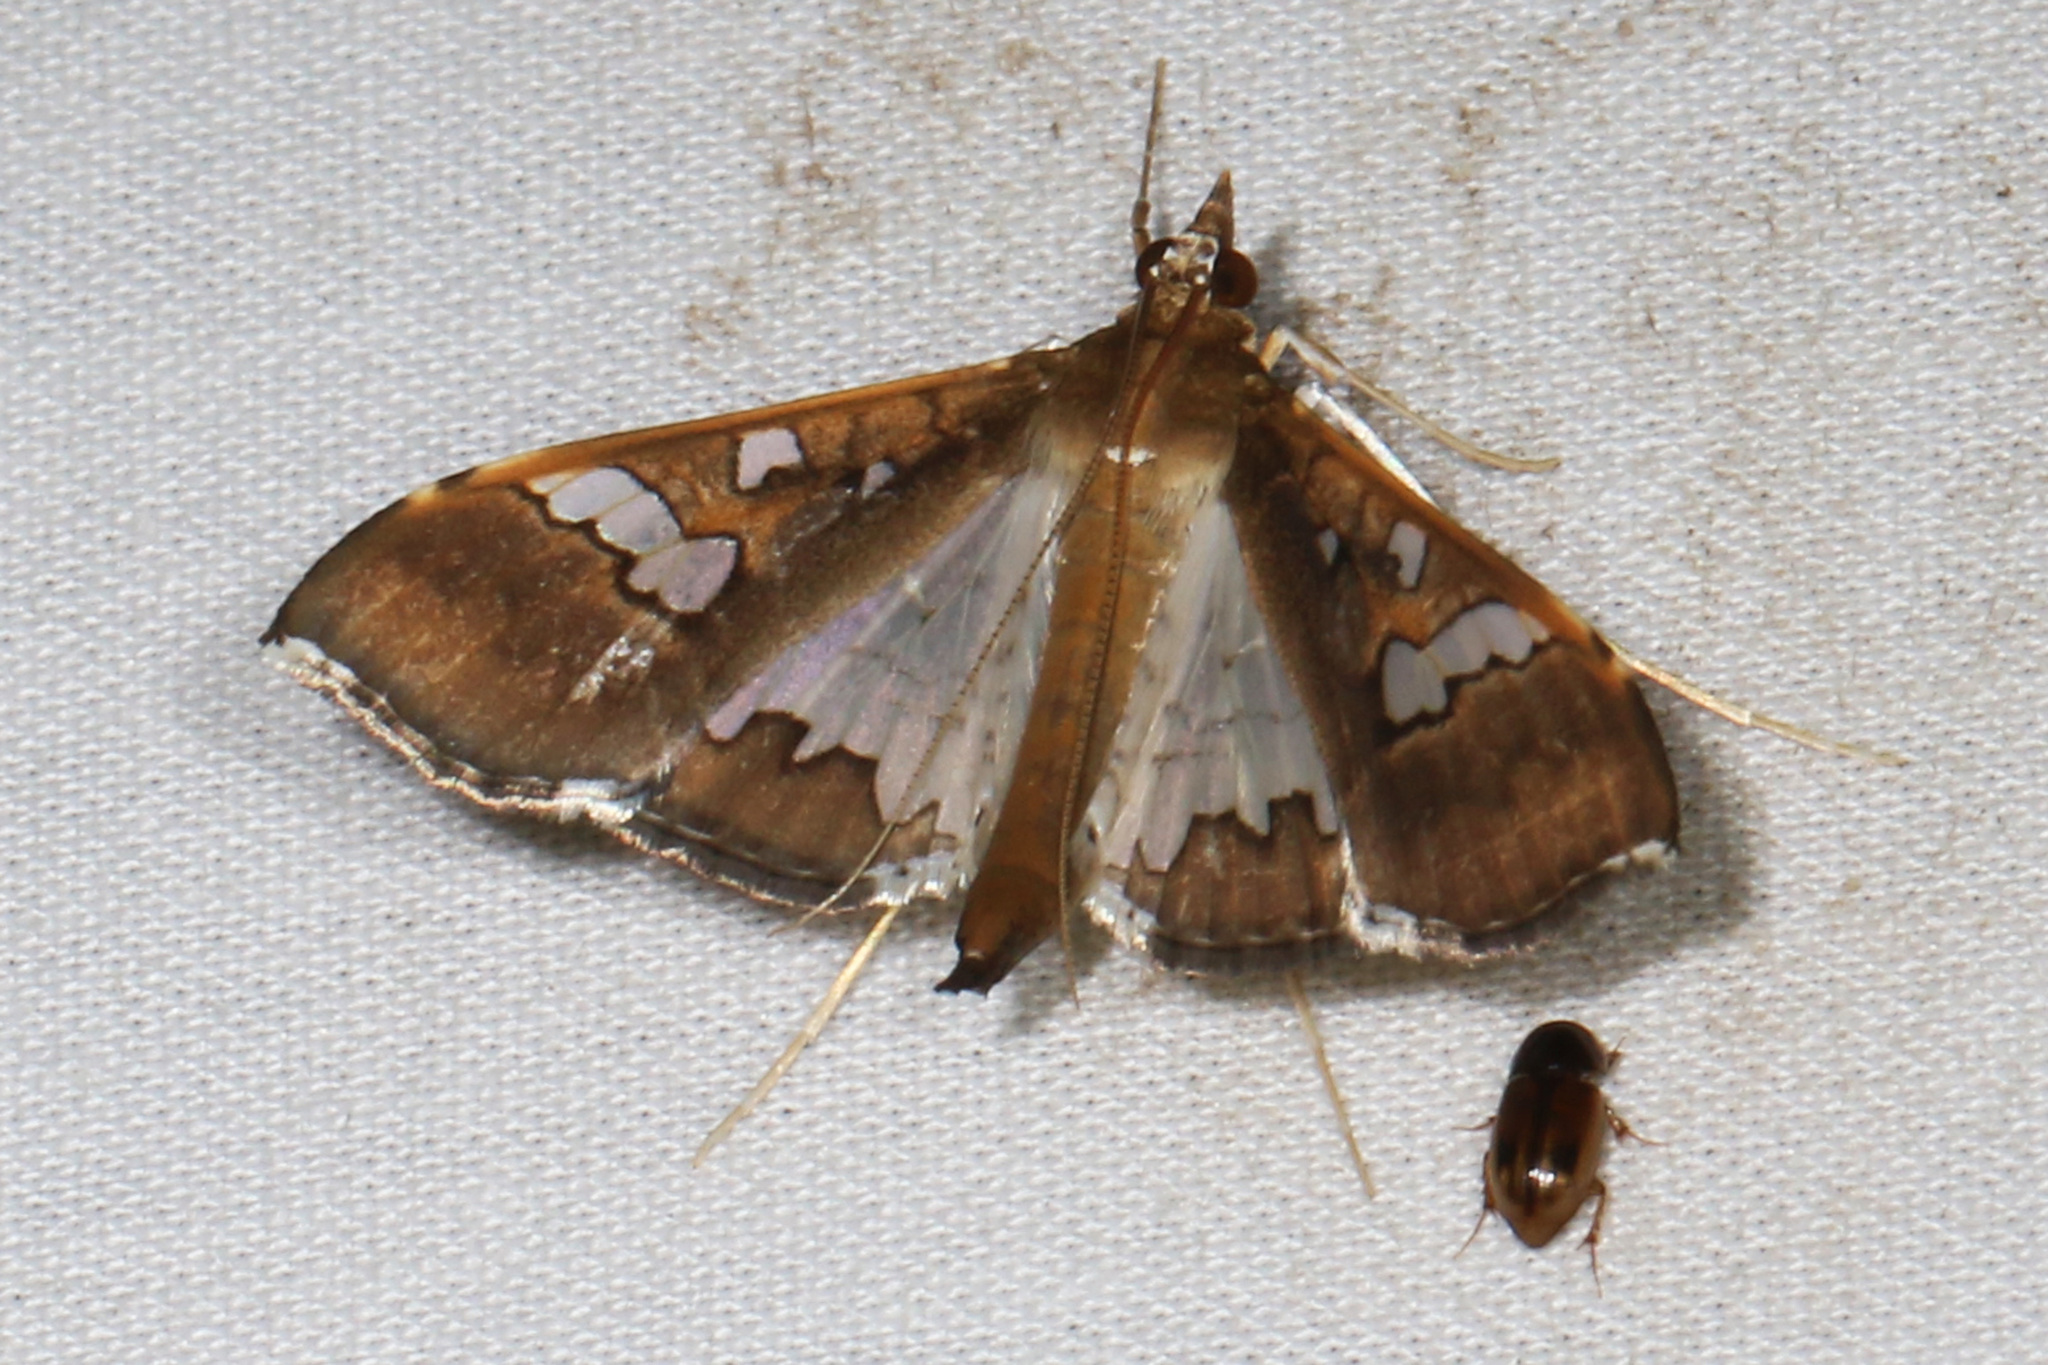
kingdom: Animalia
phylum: Arthropoda
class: Insecta
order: Lepidoptera
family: Crambidae
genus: Maruca
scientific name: Maruca vitrata
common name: Maruca pod borer
